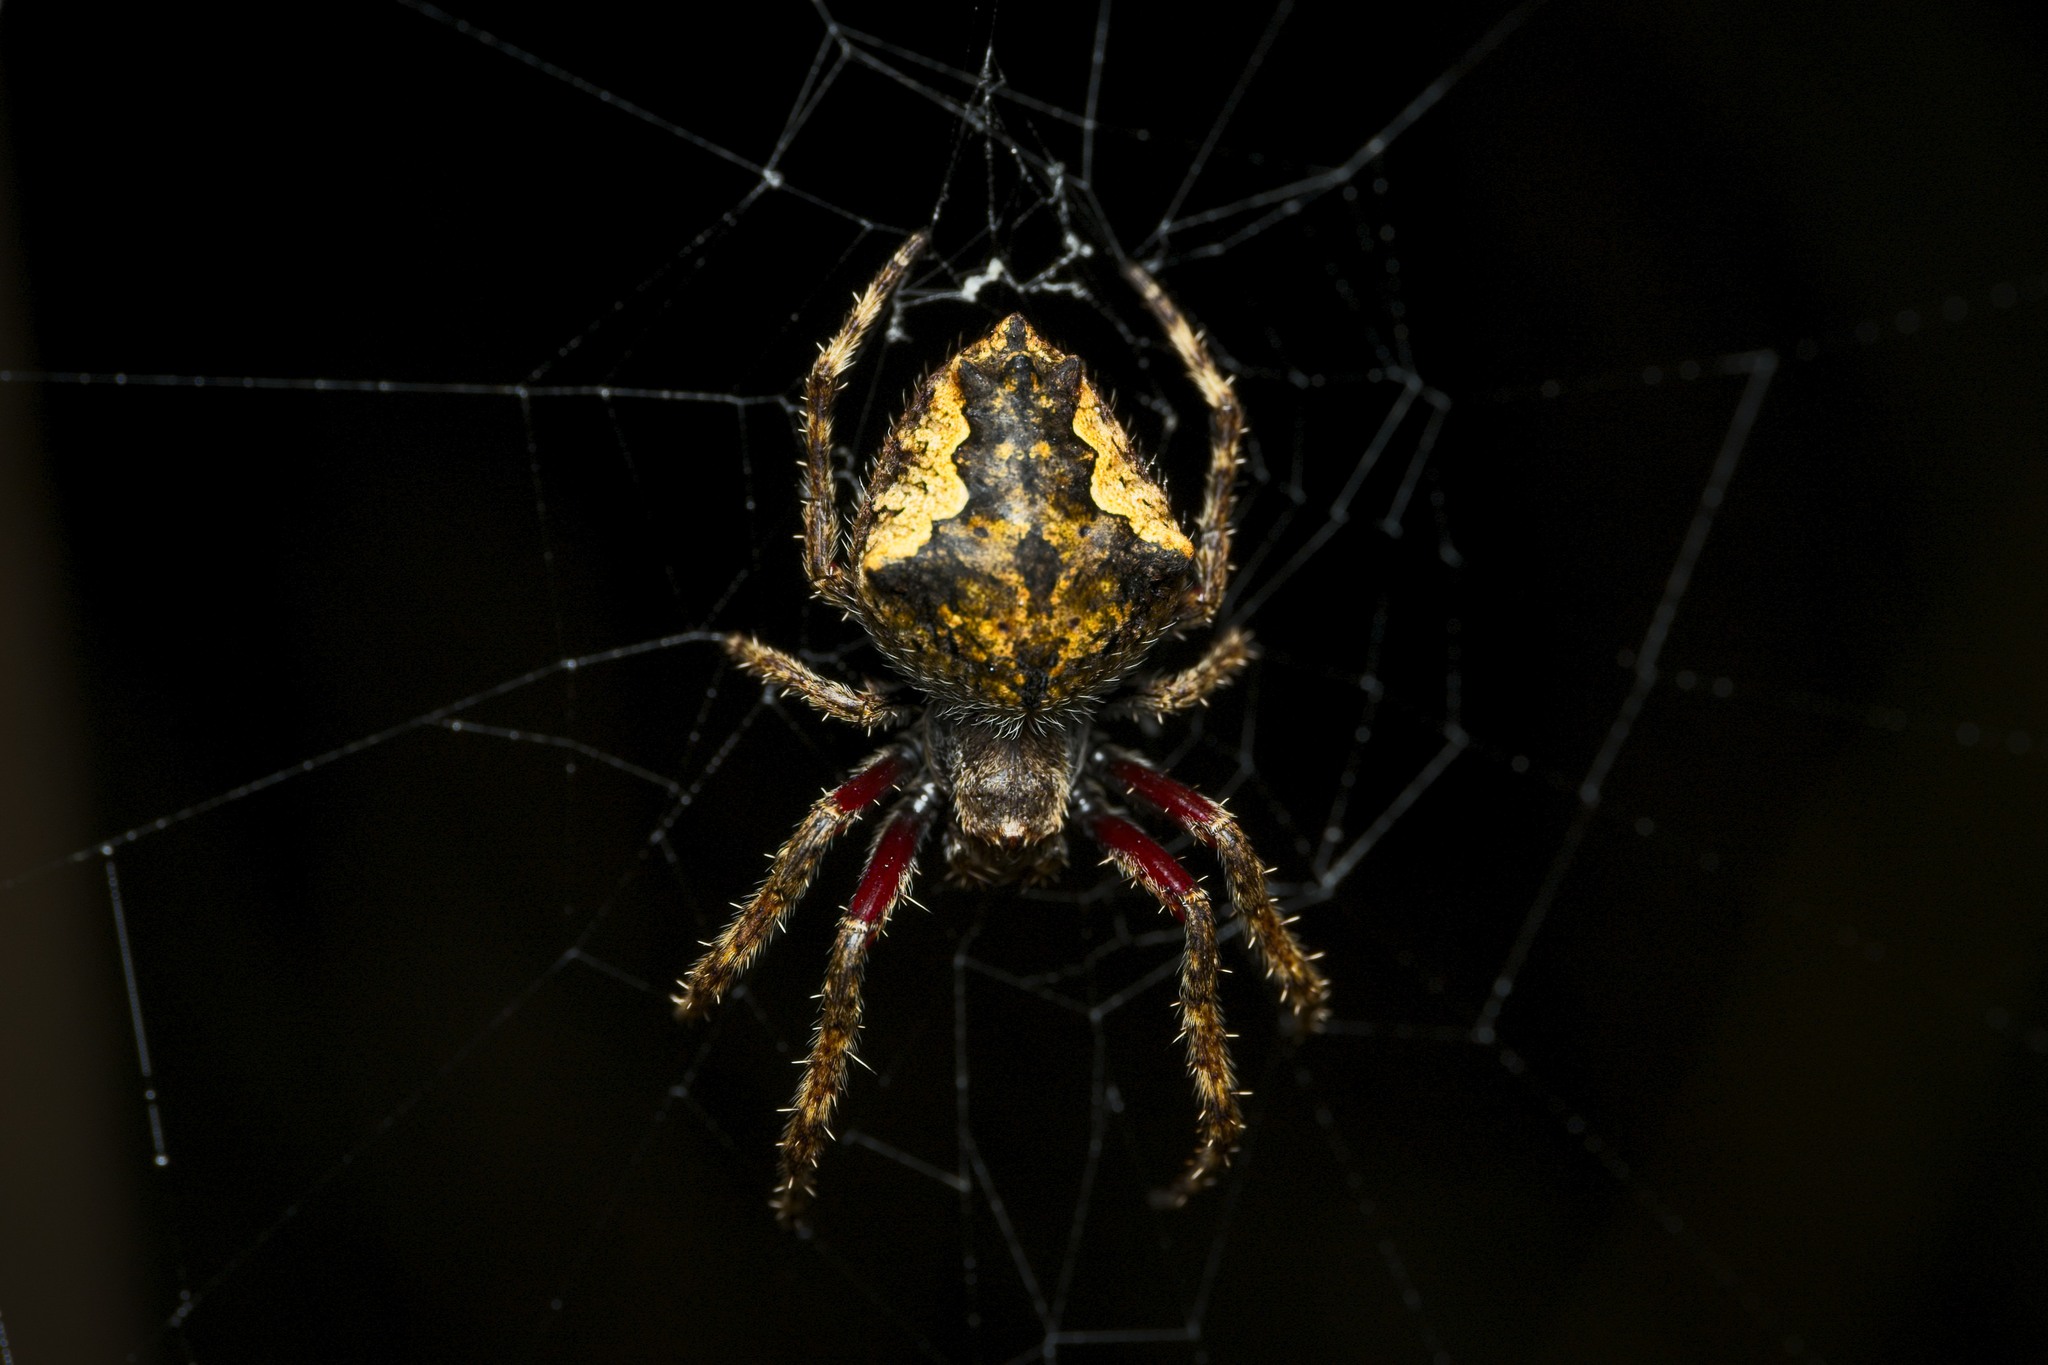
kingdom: Animalia
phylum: Arthropoda
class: Arachnida
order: Araneae
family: Araneidae
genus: Eriophora
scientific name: Eriophora pustulosa
